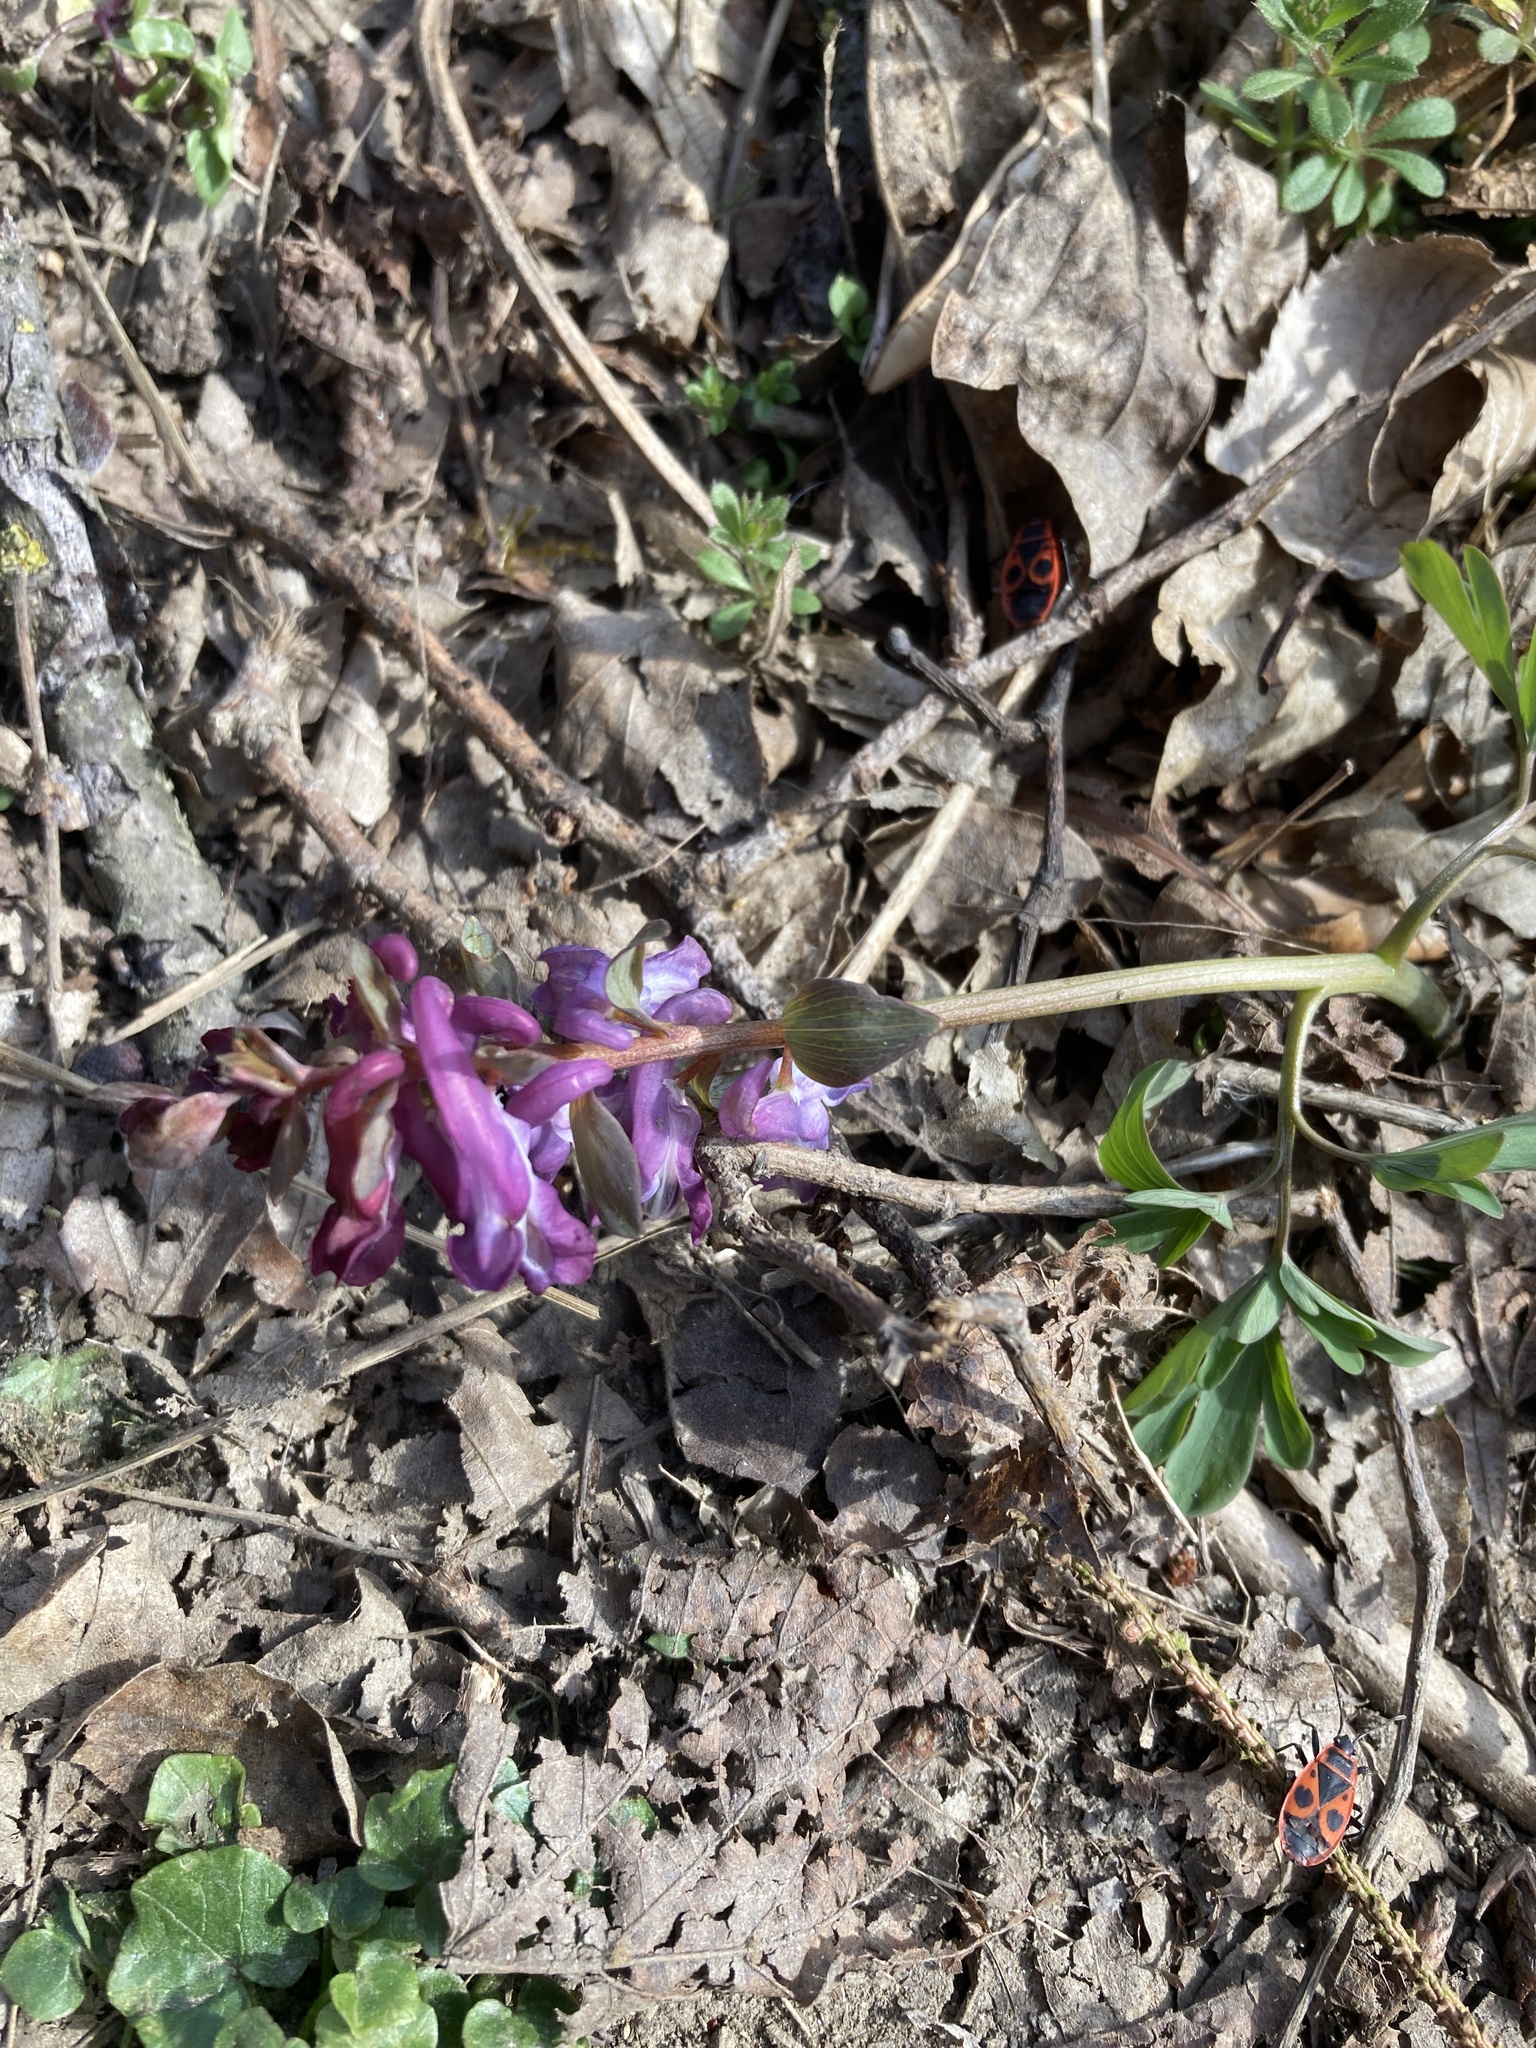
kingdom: Plantae
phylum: Tracheophyta
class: Magnoliopsida
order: Ranunculales
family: Papaveraceae
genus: Corydalis
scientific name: Corydalis cava
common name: Hollowroot
